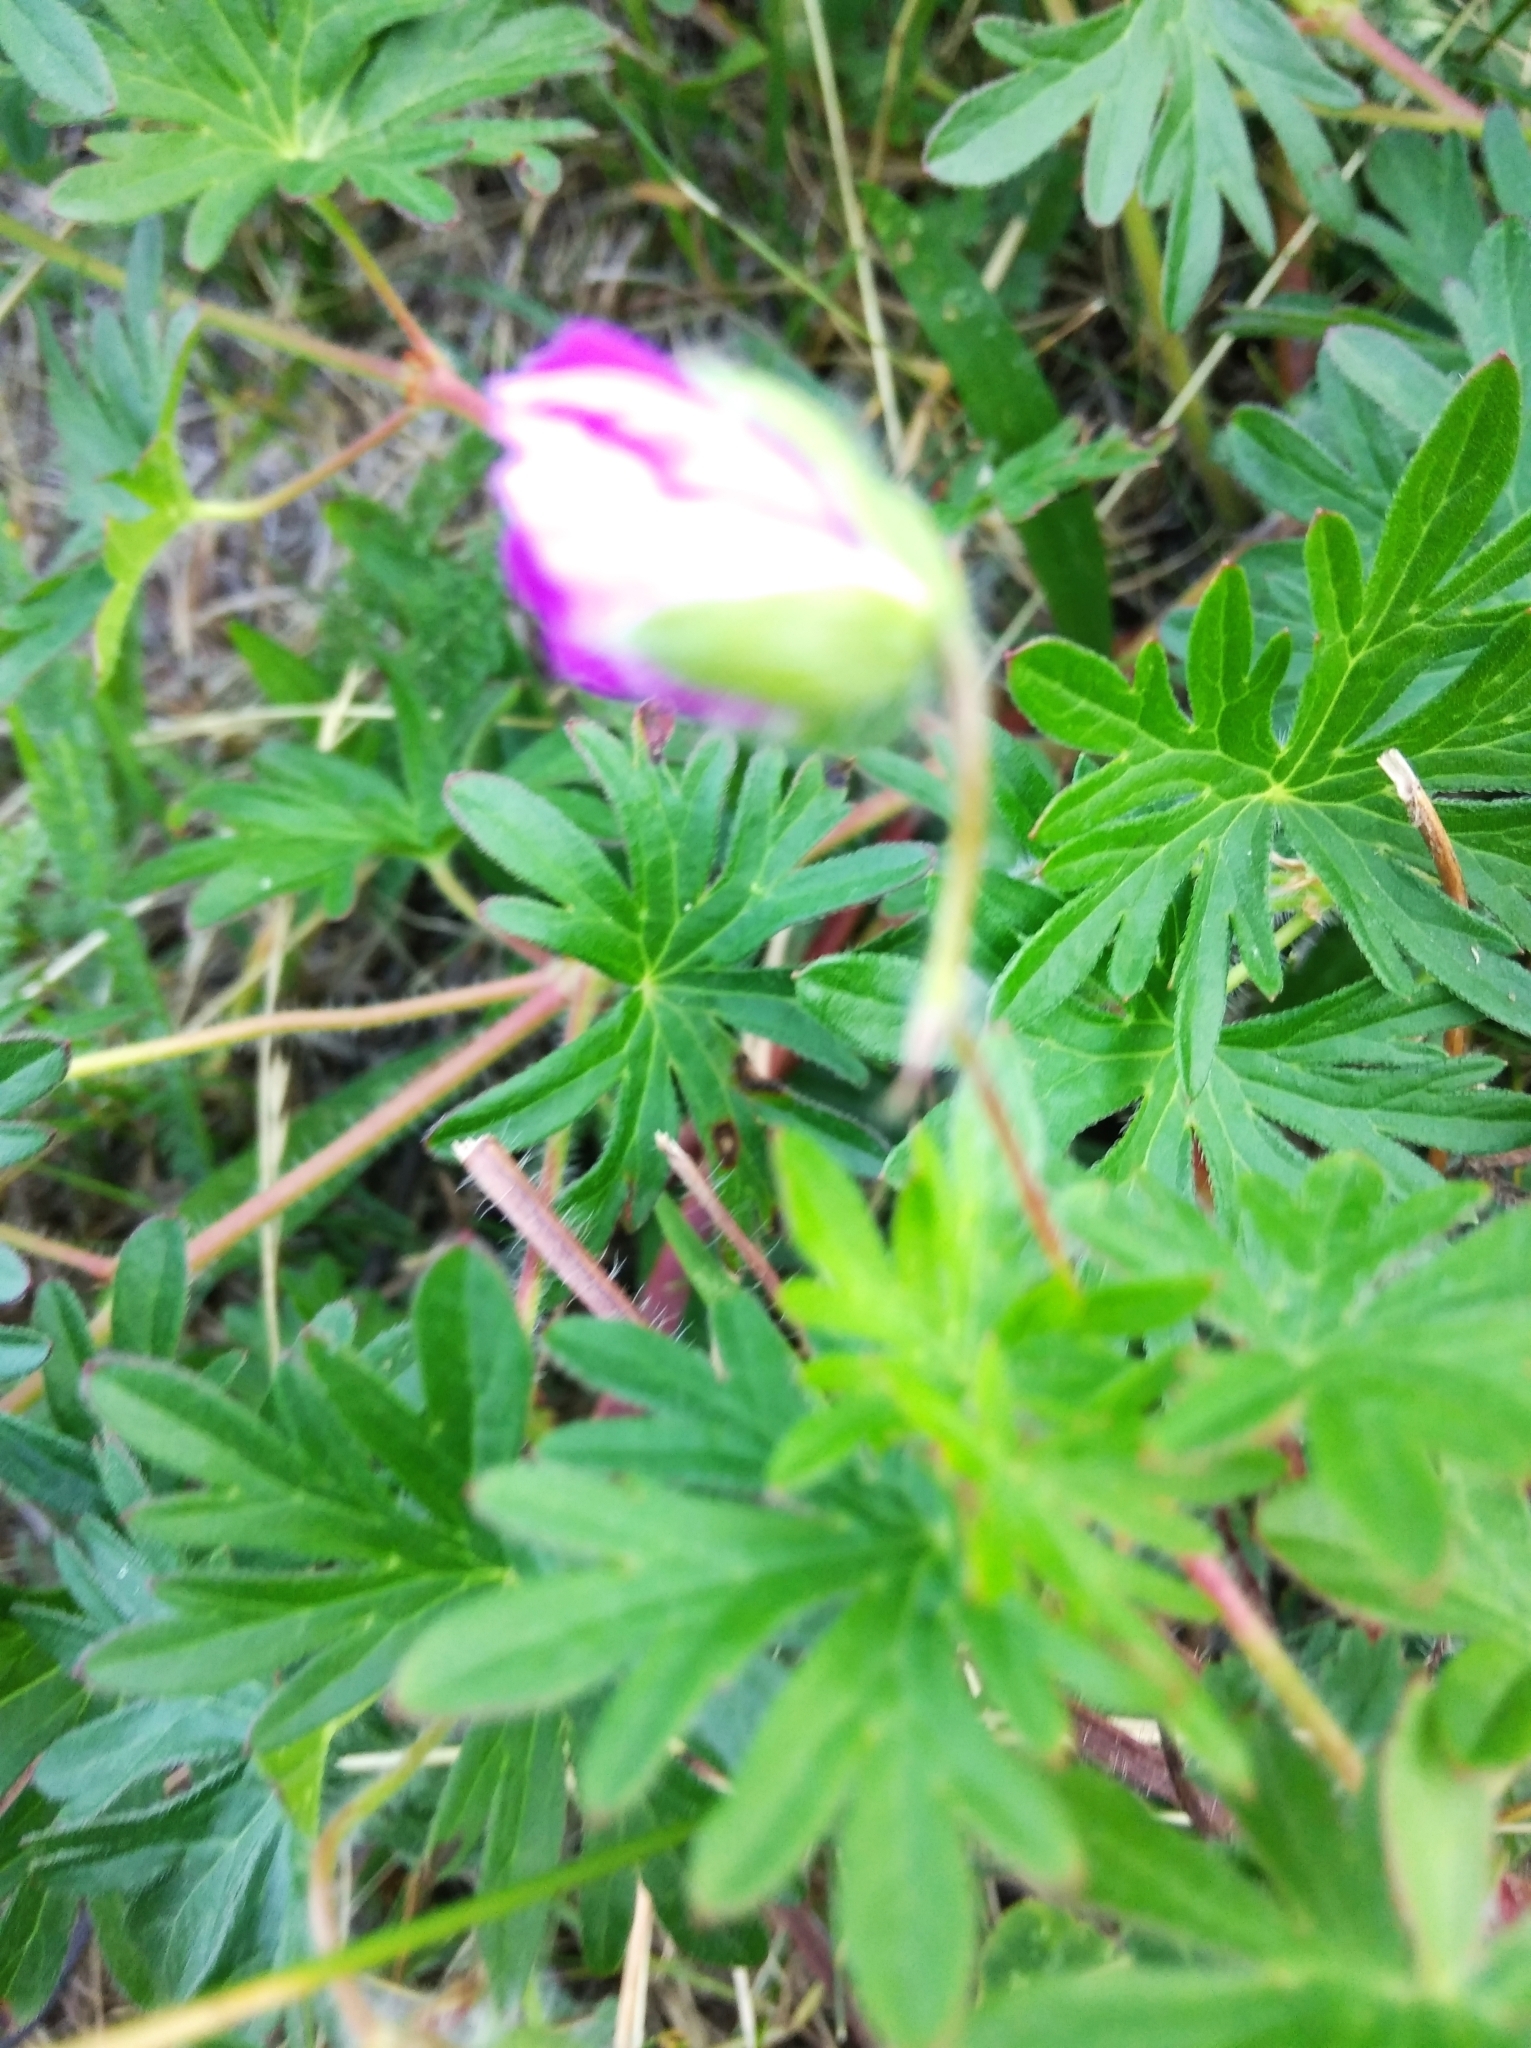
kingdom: Plantae
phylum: Tracheophyta
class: Magnoliopsida
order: Geraniales
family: Geraniaceae
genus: Geranium
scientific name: Geranium sanguineum
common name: Bloody crane's-bill
